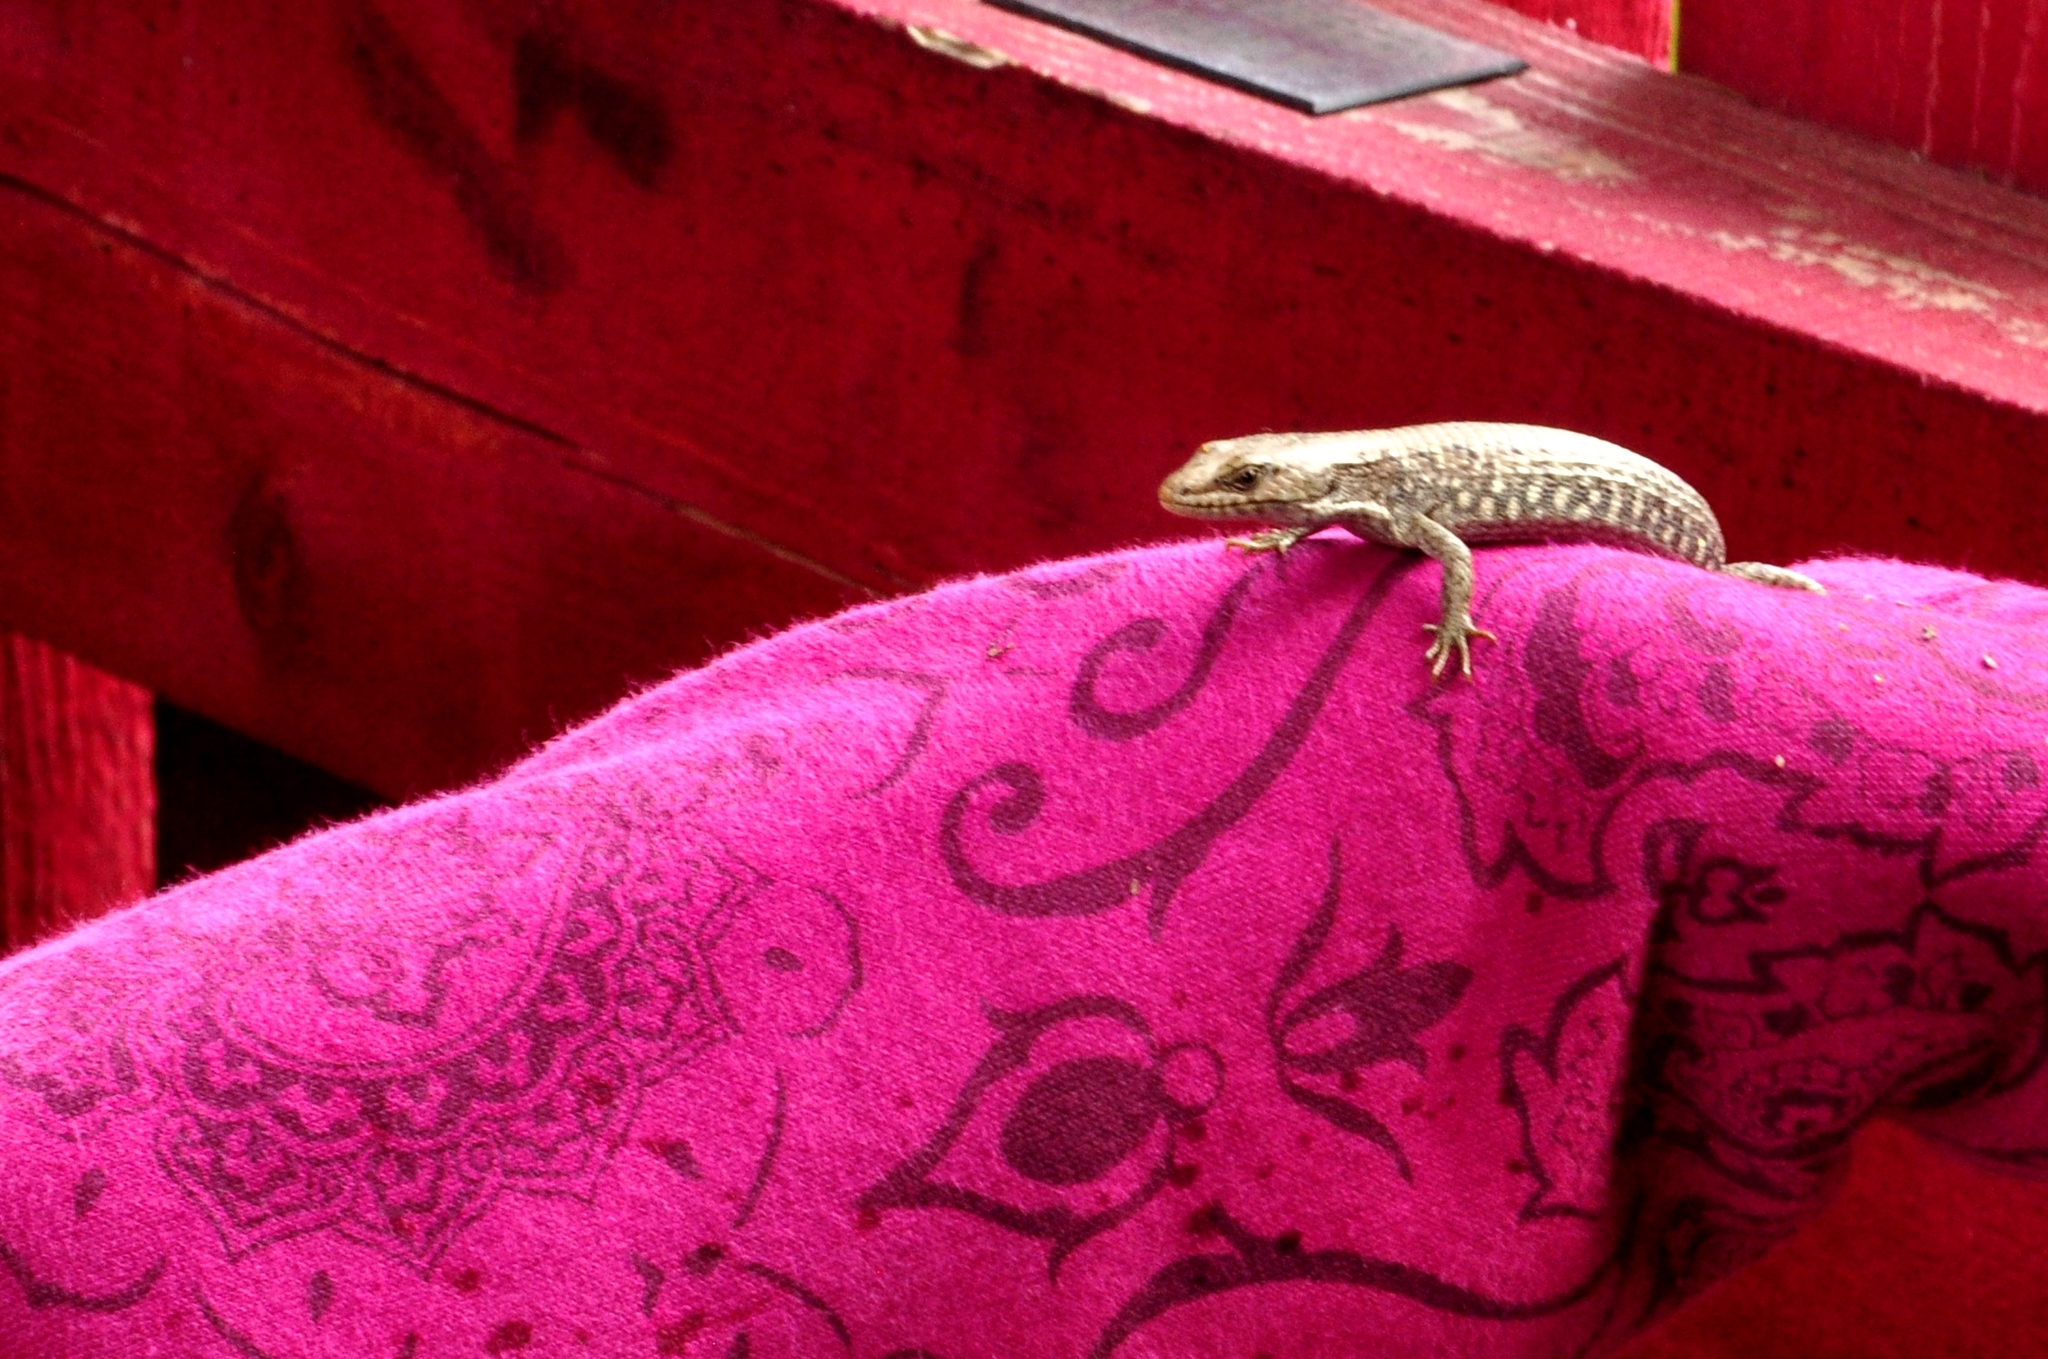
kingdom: Animalia
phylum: Chordata
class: Squamata
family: Anguidae
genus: Elgaria
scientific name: Elgaria coerulea
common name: Northern alligator lizard
